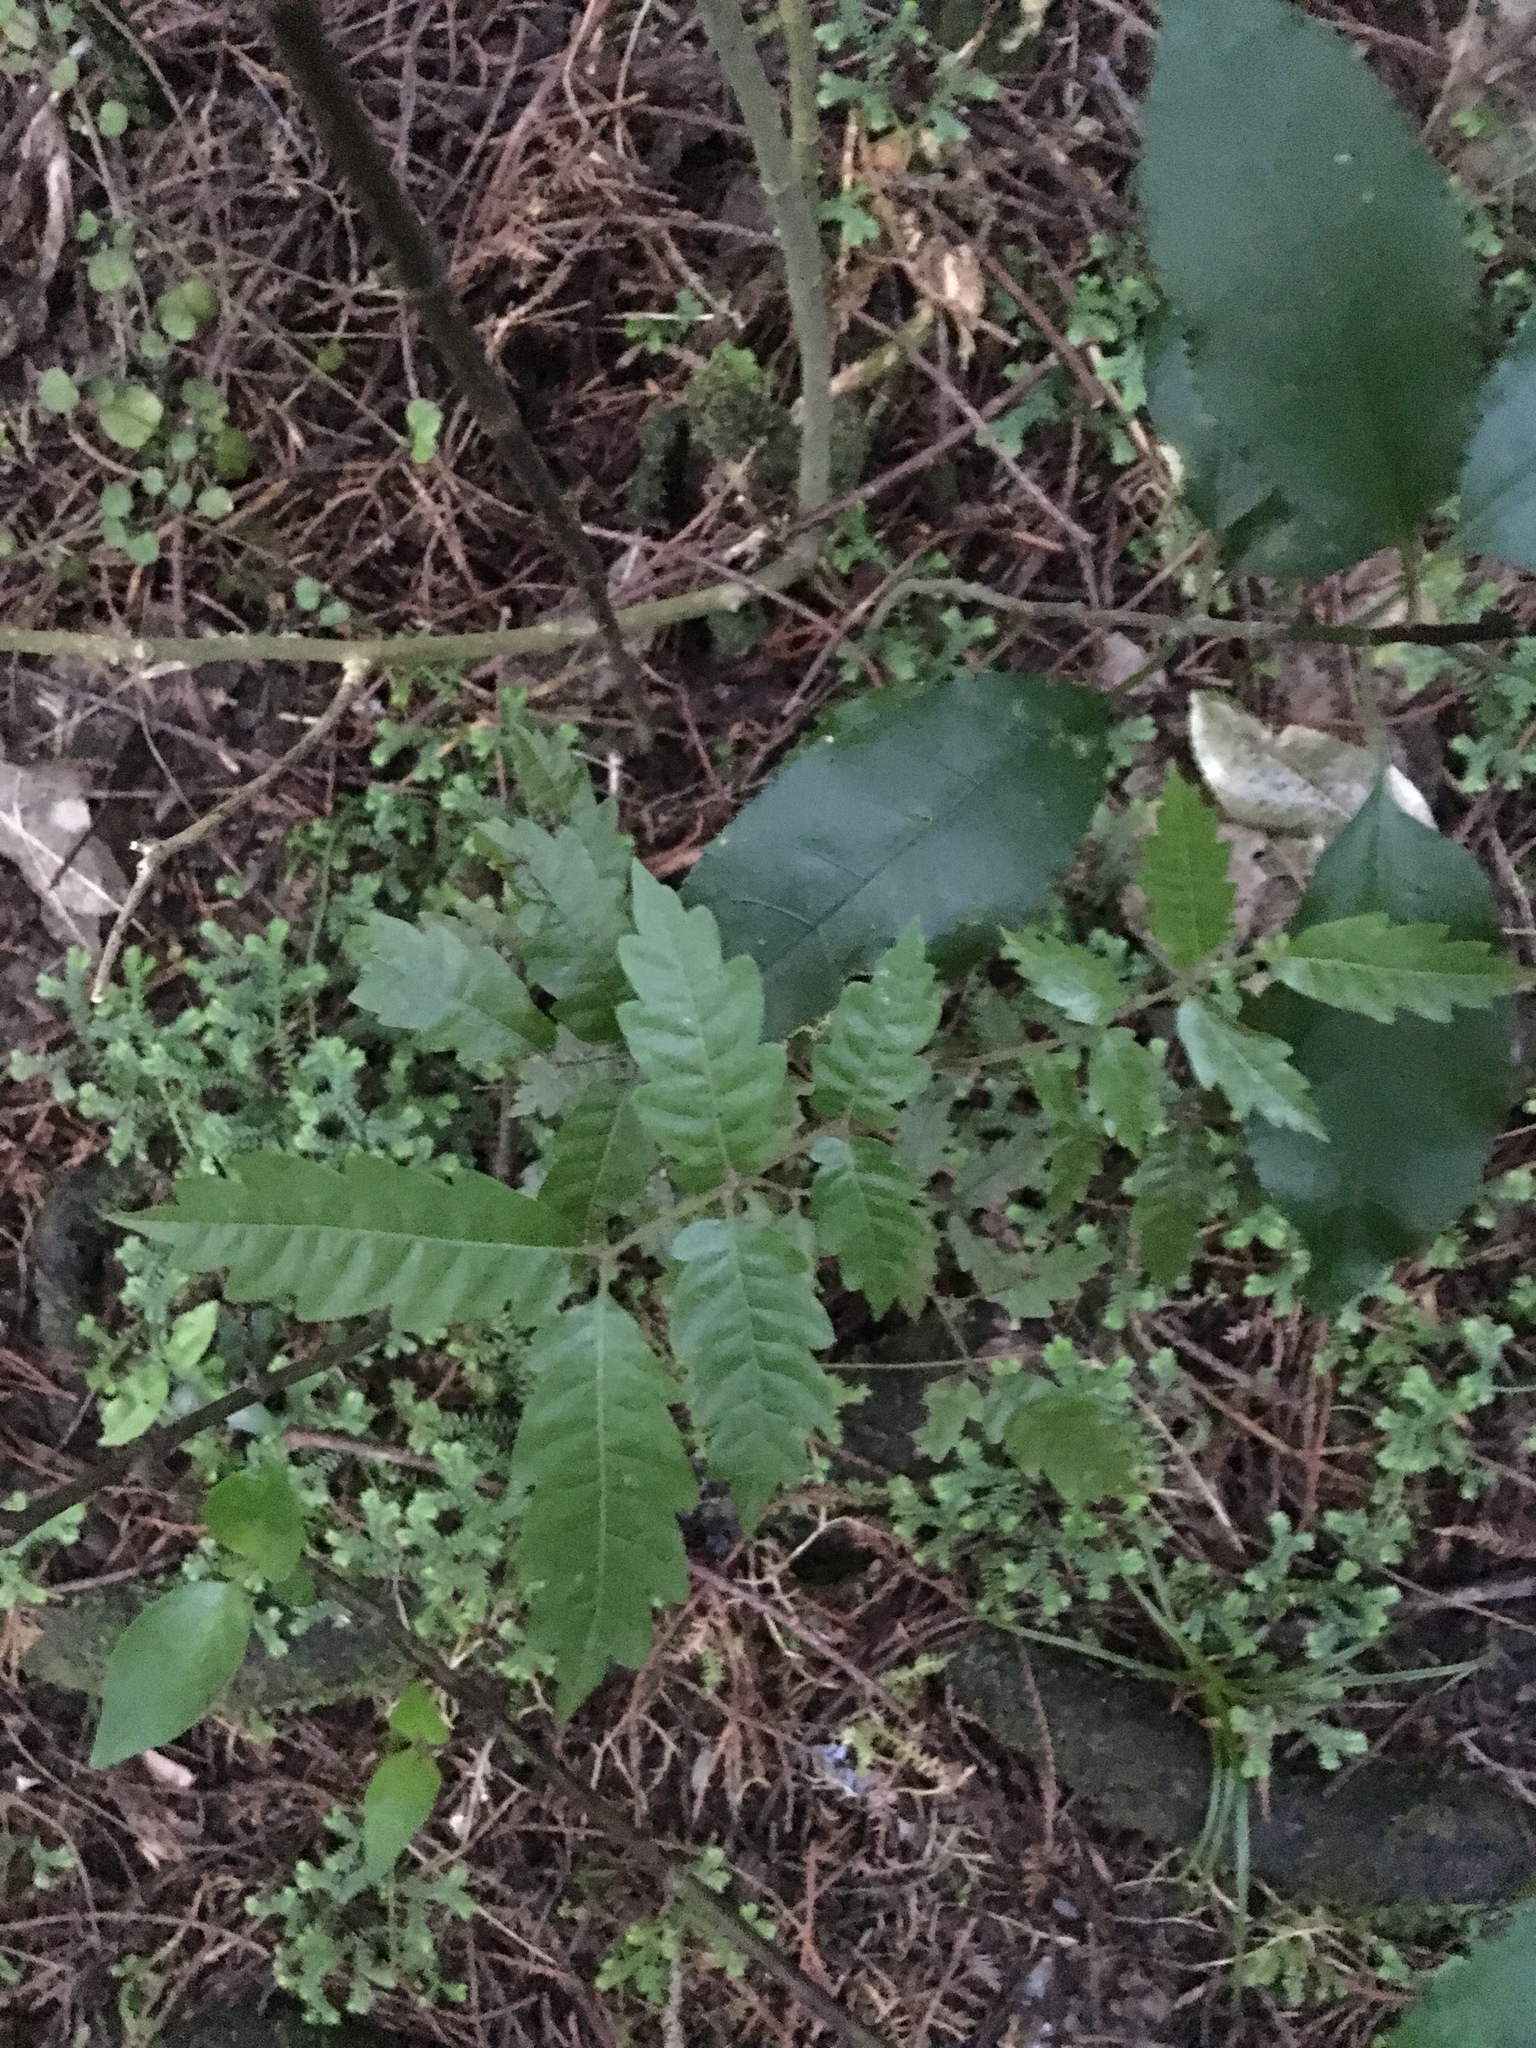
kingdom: Plantae
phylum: Tracheophyta
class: Magnoliopsida
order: Sapindales
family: Sapindaceae
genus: Alectryon
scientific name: Alectryon excelsus
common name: Three kings titoki
